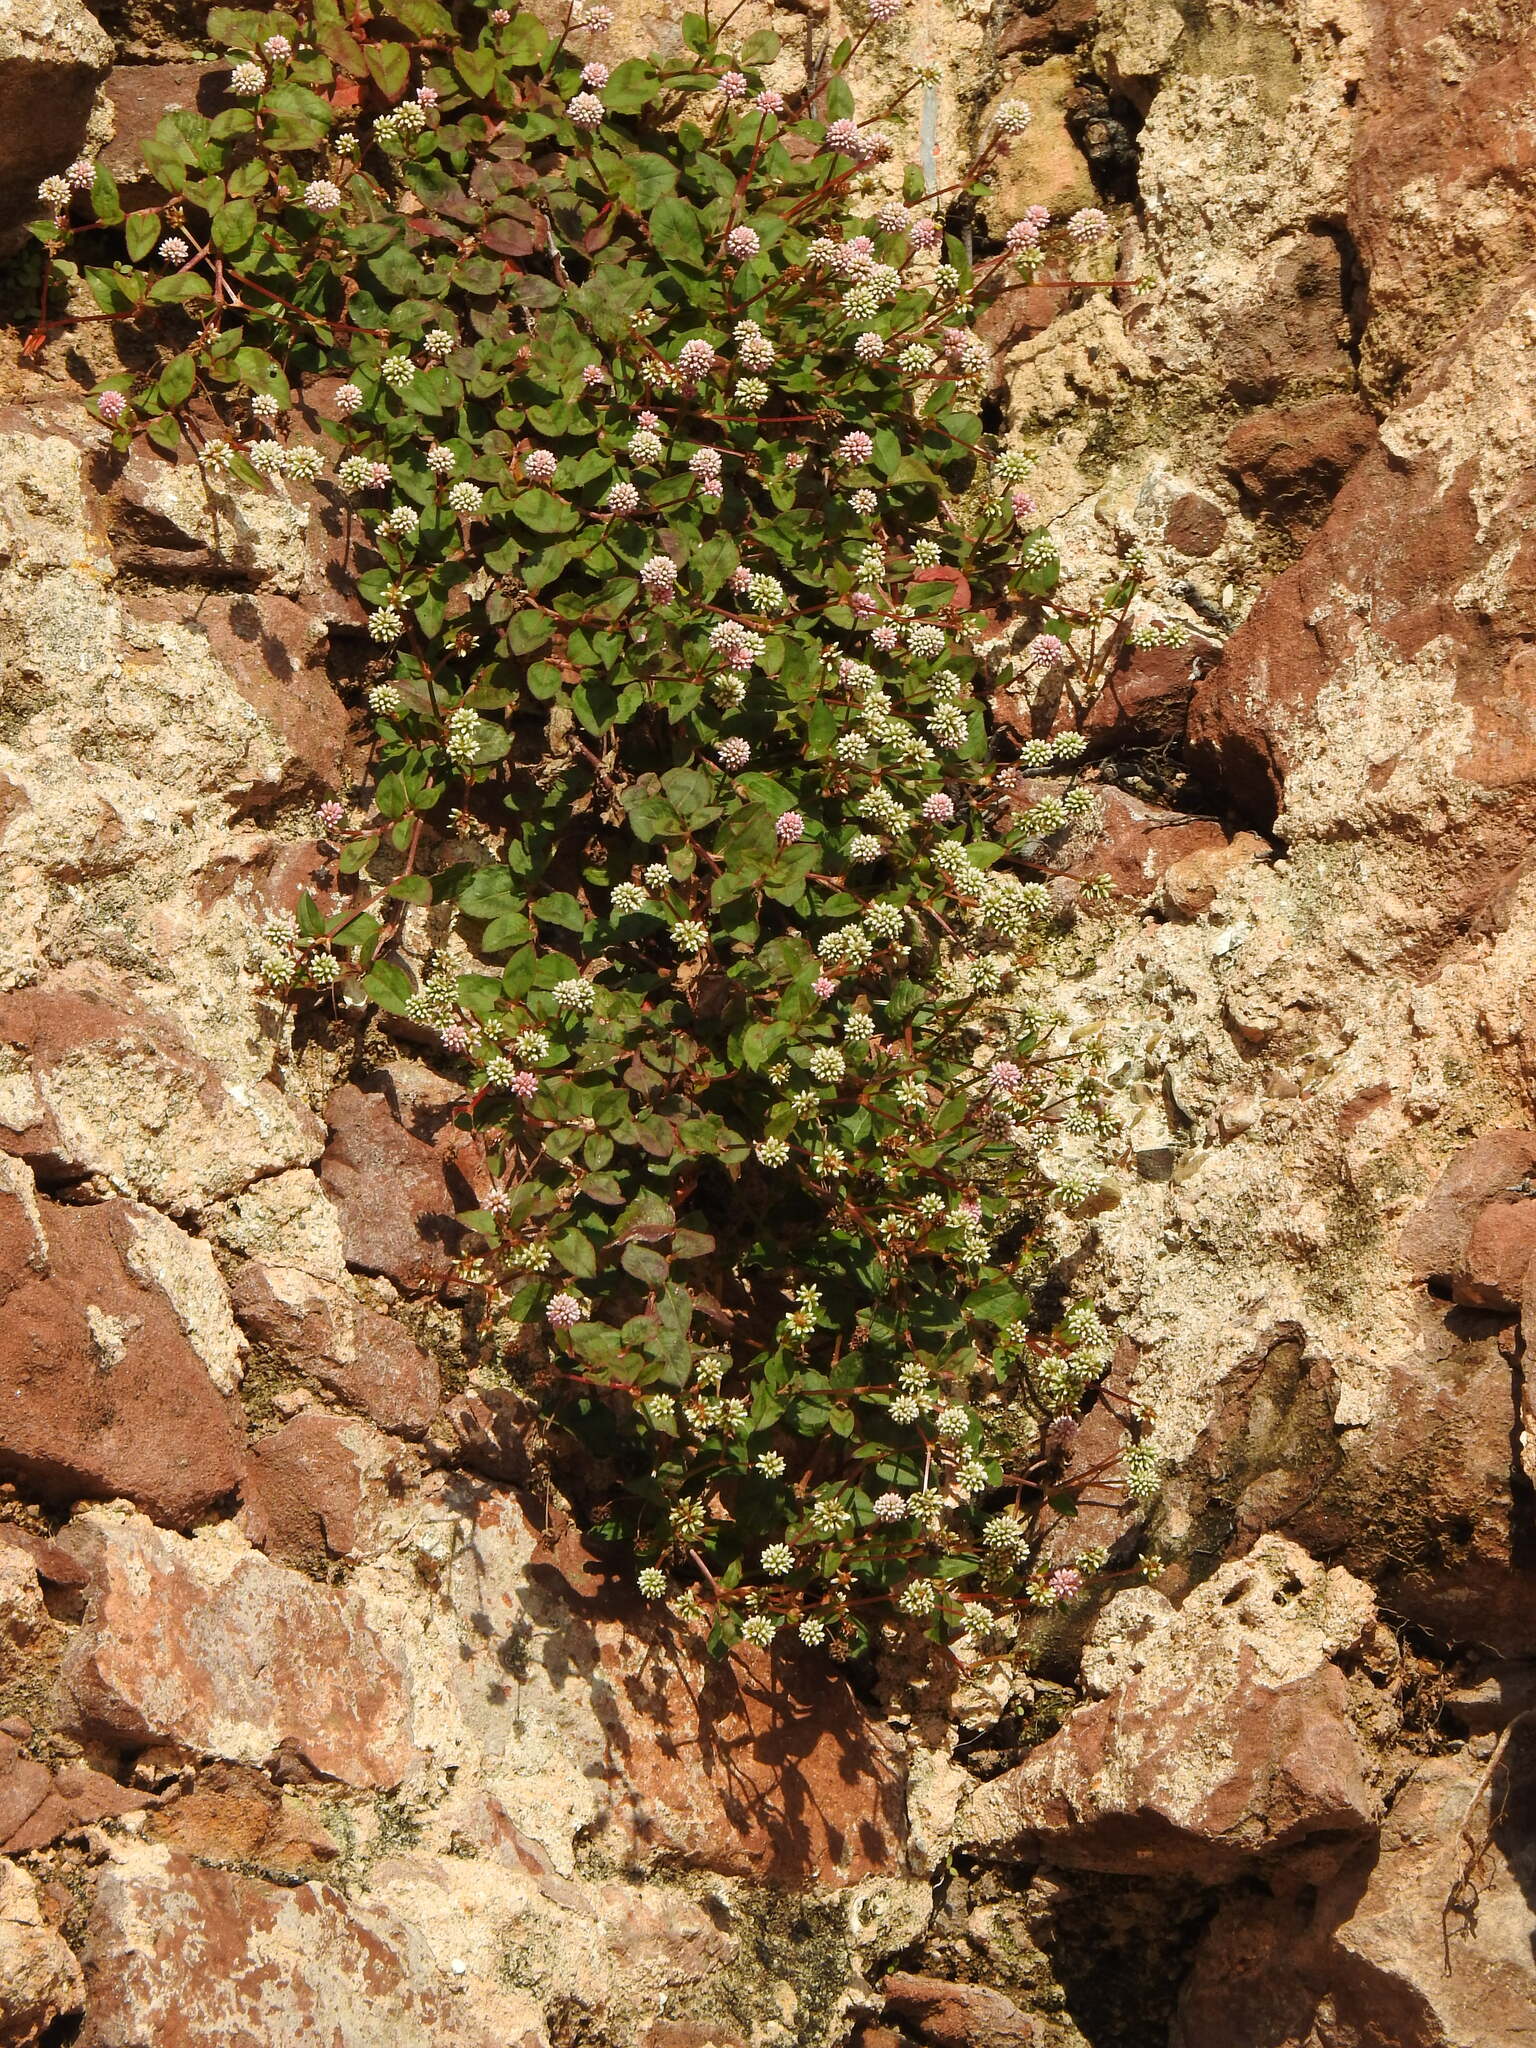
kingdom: Plantae
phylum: Tracheophyta
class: Magnoliopsida
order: Caryophyllales
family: Polygonaceae
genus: Persicaria
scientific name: Persicaria capitata
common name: Pinkhead smartweed
